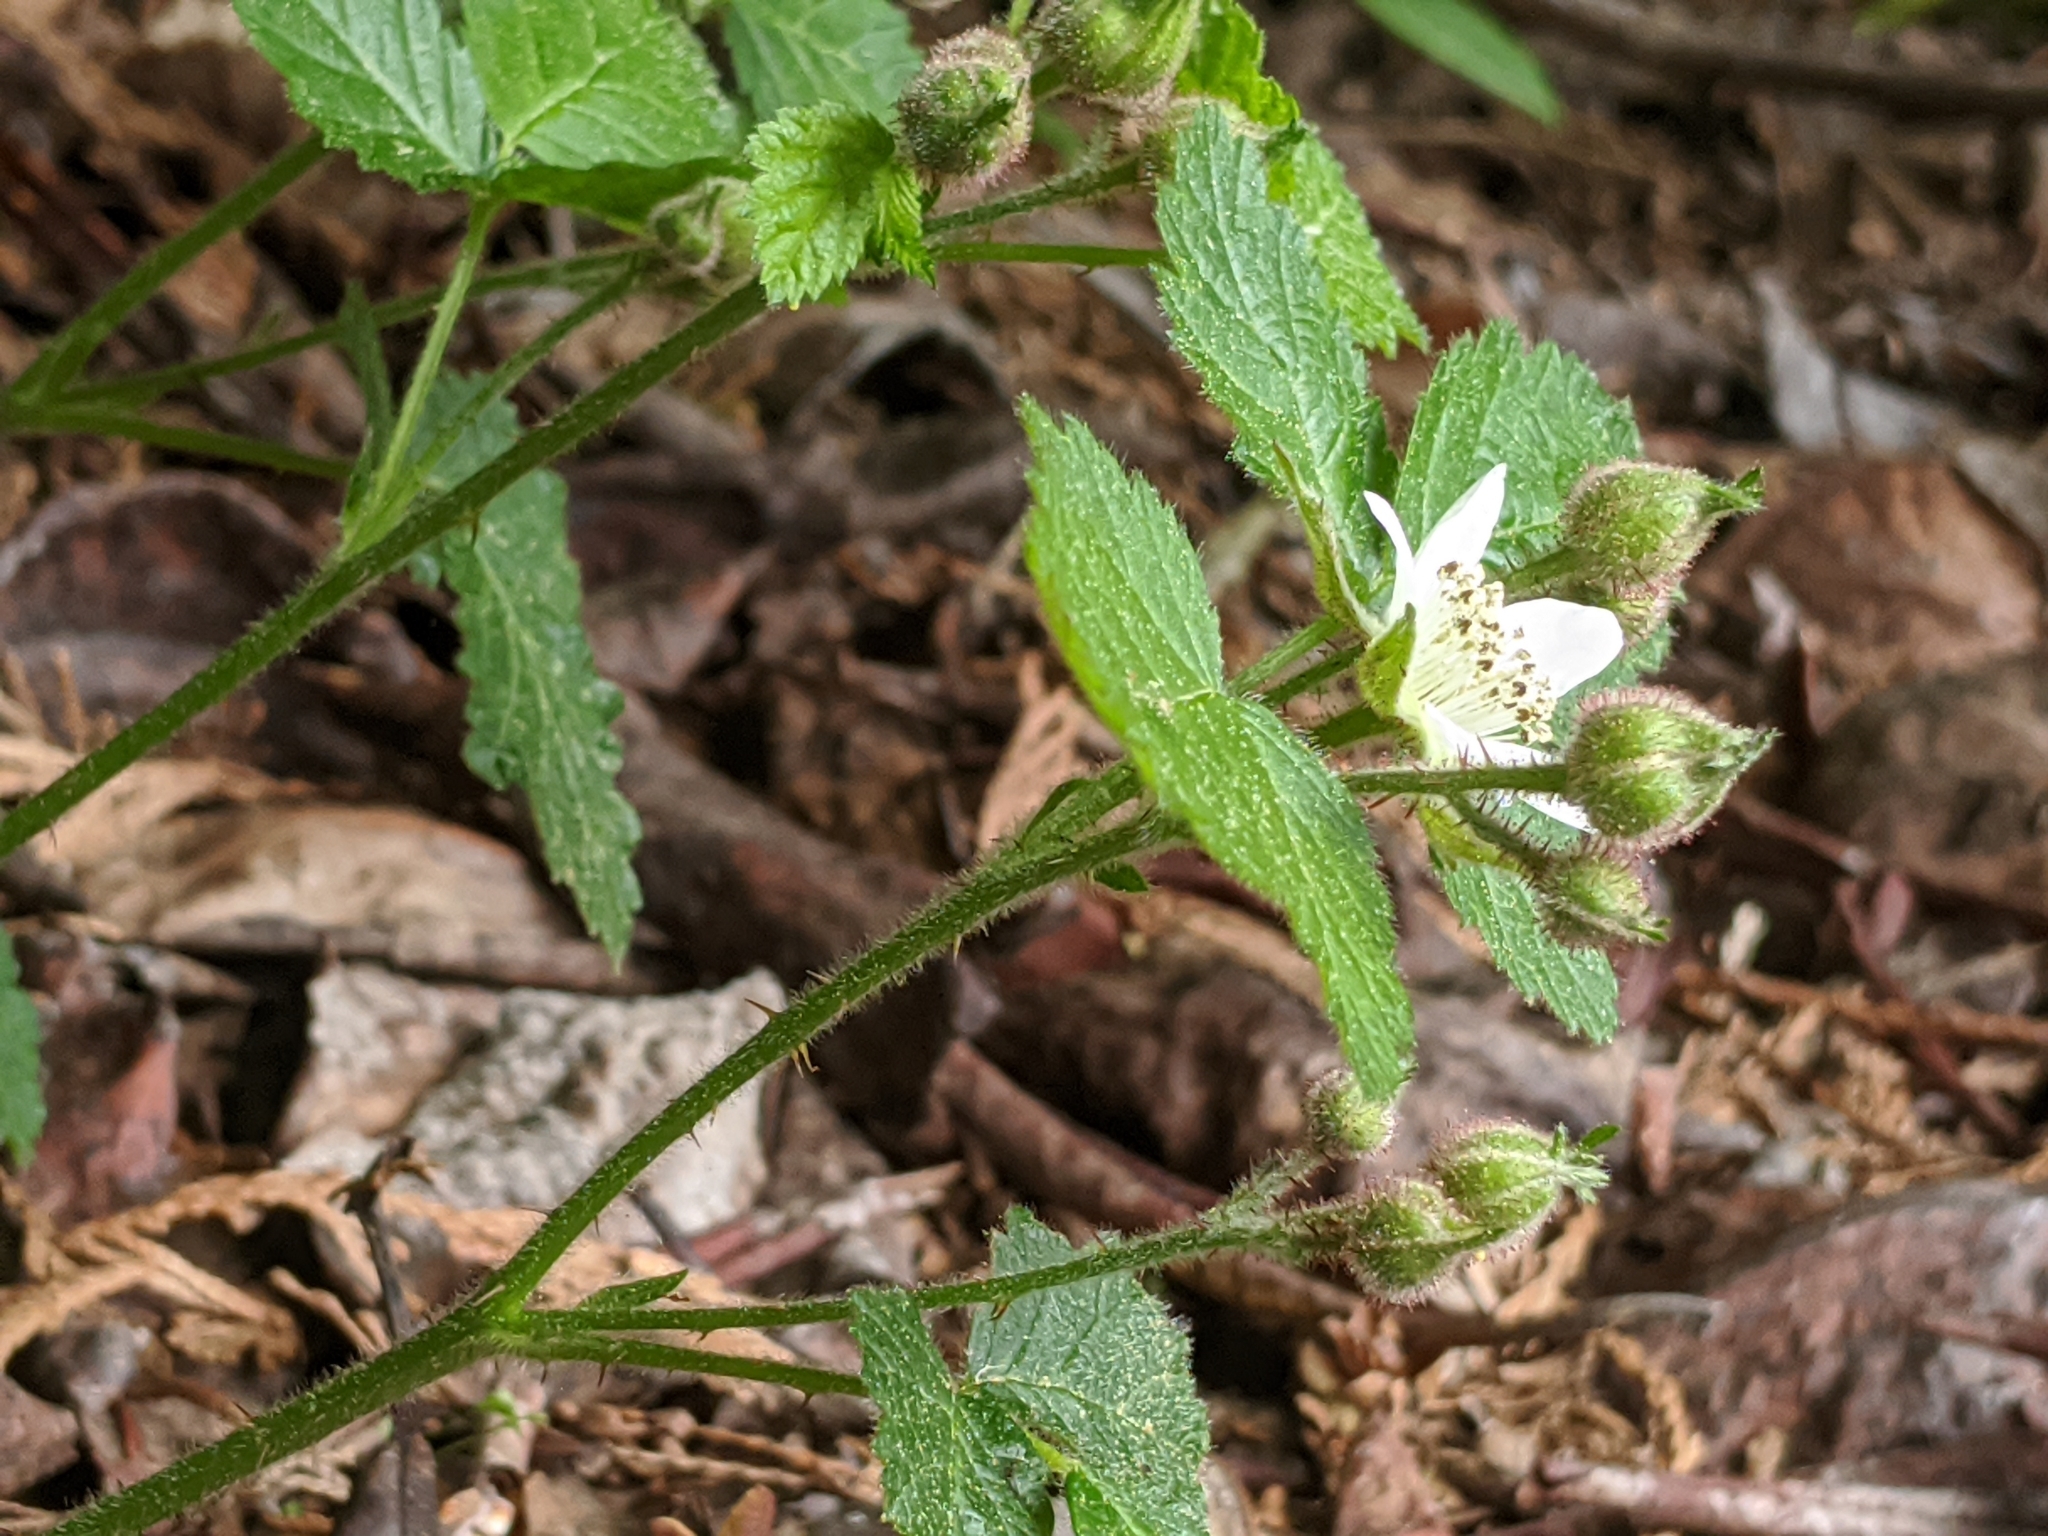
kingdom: Plantae
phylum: Tracheophyta
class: Magnoliopsida
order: Rosales
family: Rosaceae
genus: Rubus
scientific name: Rubus ursinus
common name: Pacific blackberry
